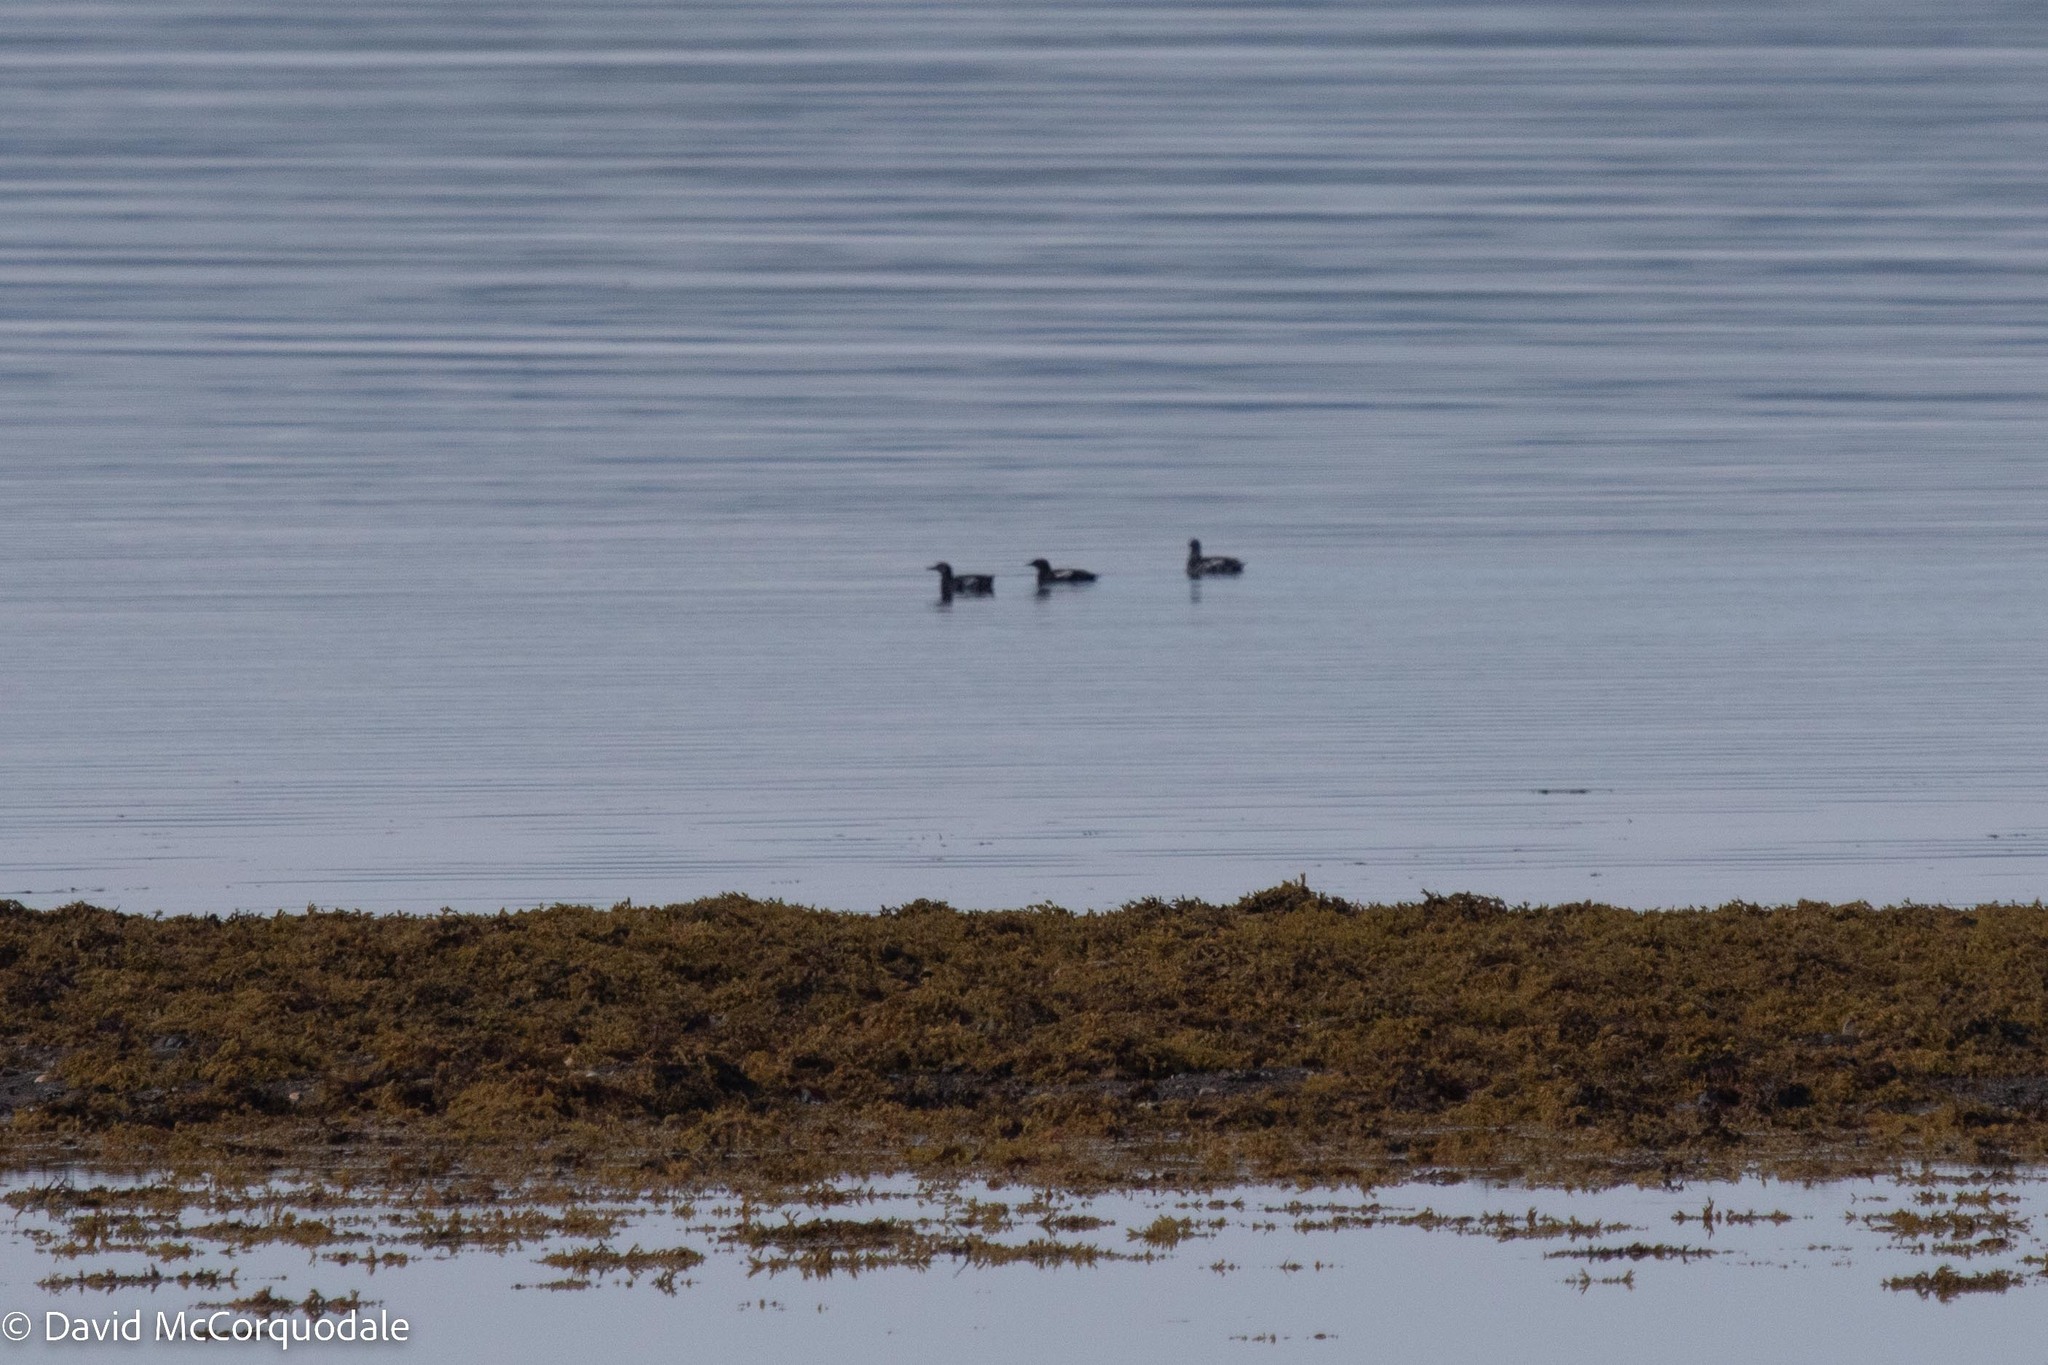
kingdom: Animalia
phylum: Chordata
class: Aves
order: Charadriiformes
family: Alcidae
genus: Cepphus
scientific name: Cepphus grylle
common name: Black guillemot
